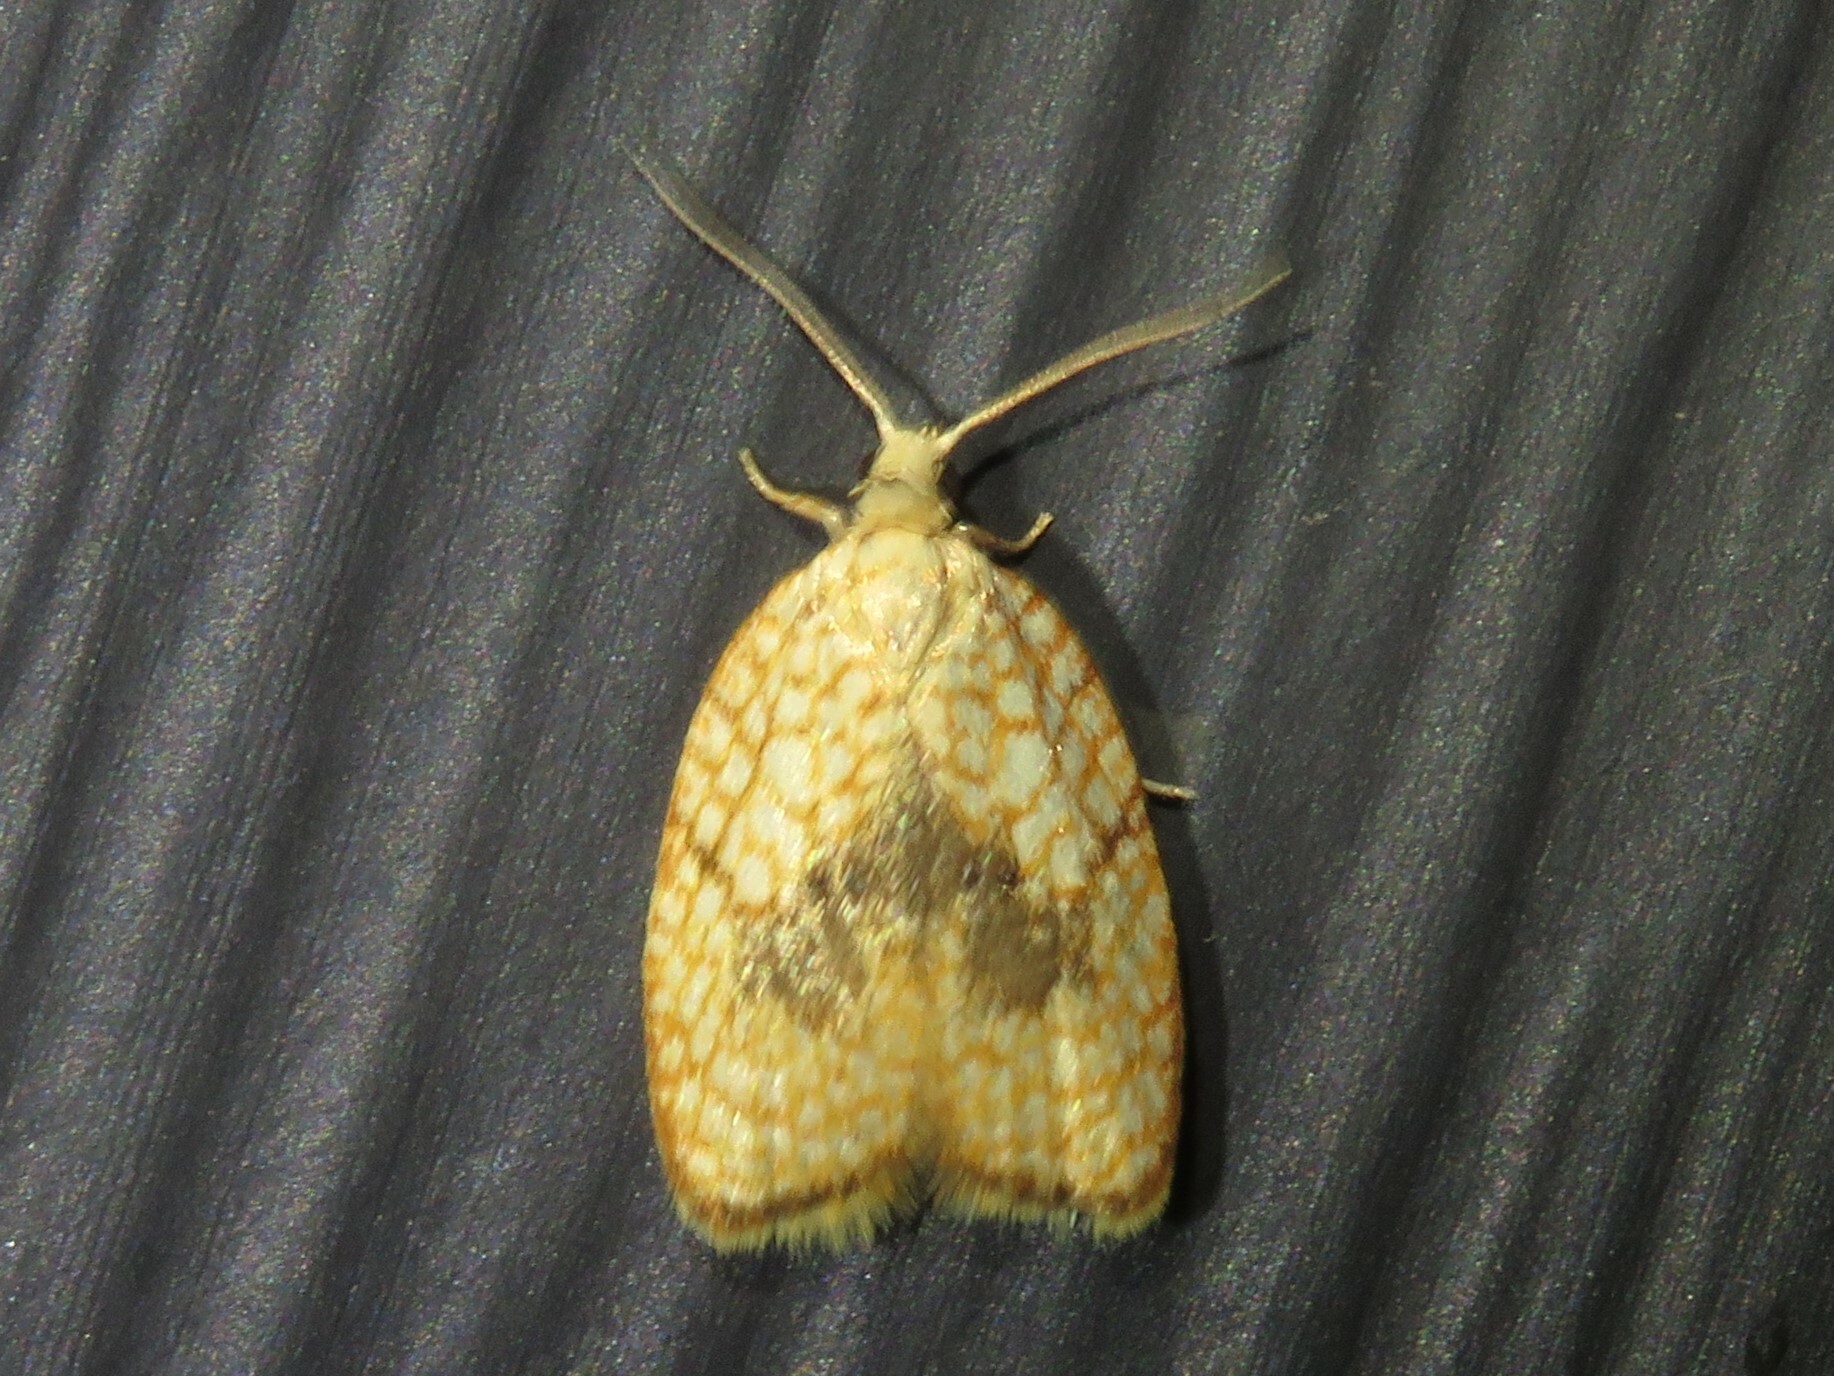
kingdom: Animalia
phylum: Arthropoda
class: Insecta
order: Lepidoptera
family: Tortricidae
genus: Acleris
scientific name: Acleris forsskaleana
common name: Maple button
